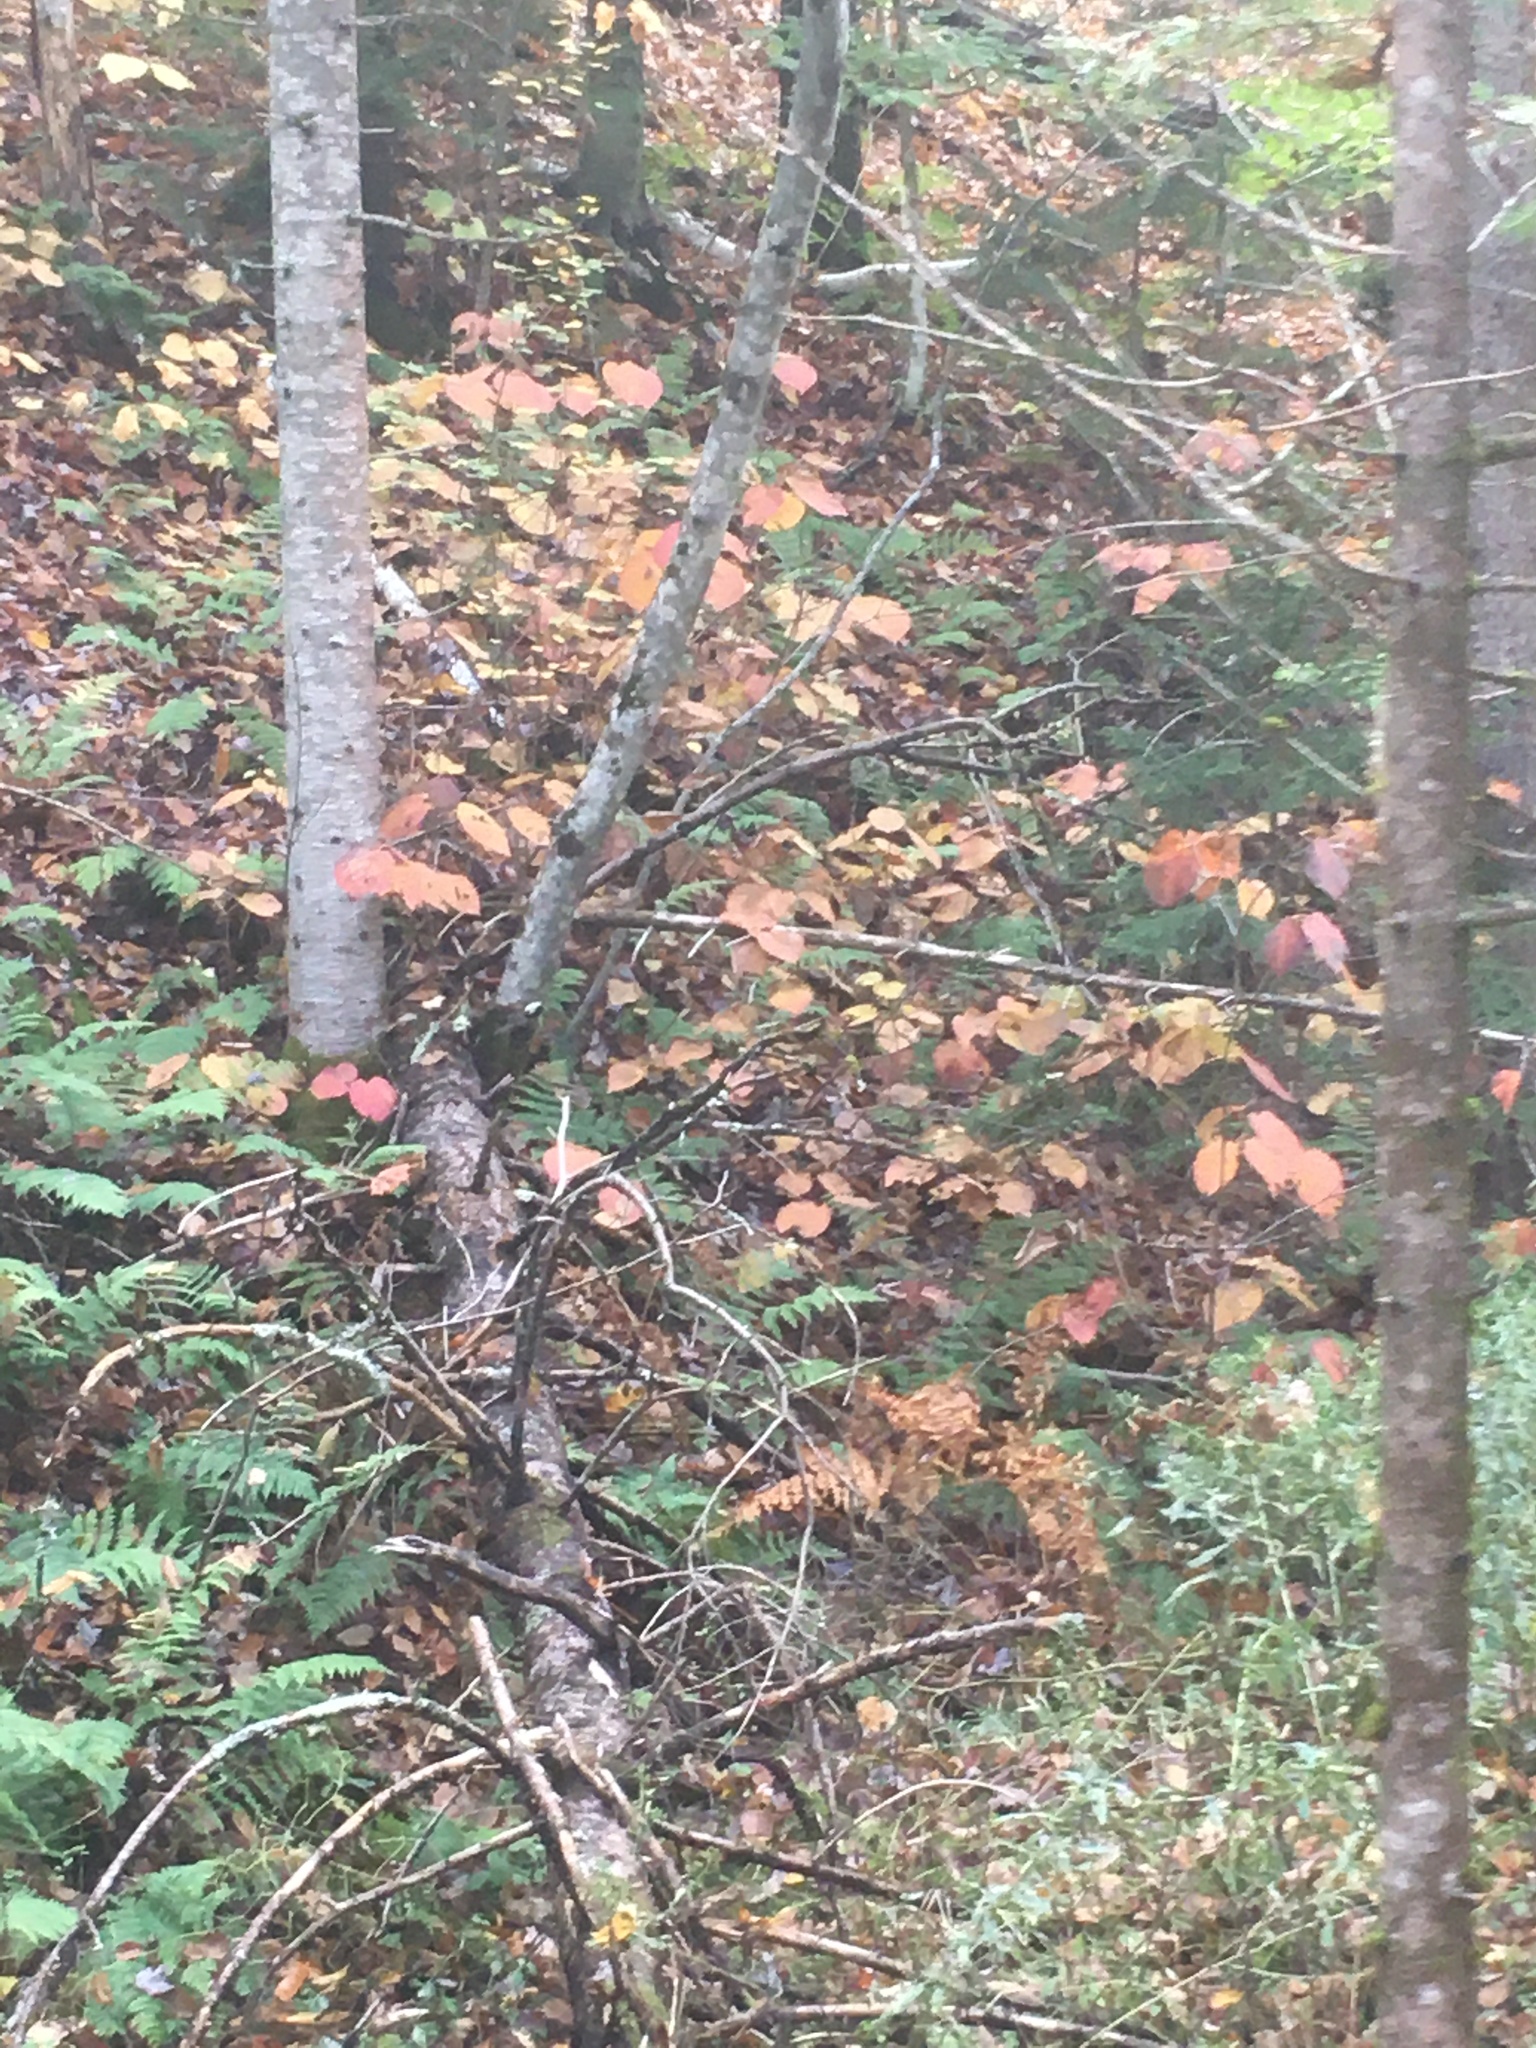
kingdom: Plantae
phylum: Tracheophyta
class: Magnoliopsida
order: Dipsacales
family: Viburnaceae
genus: Viburnum
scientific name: Viburnum lantanoides
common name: Hobblebush
